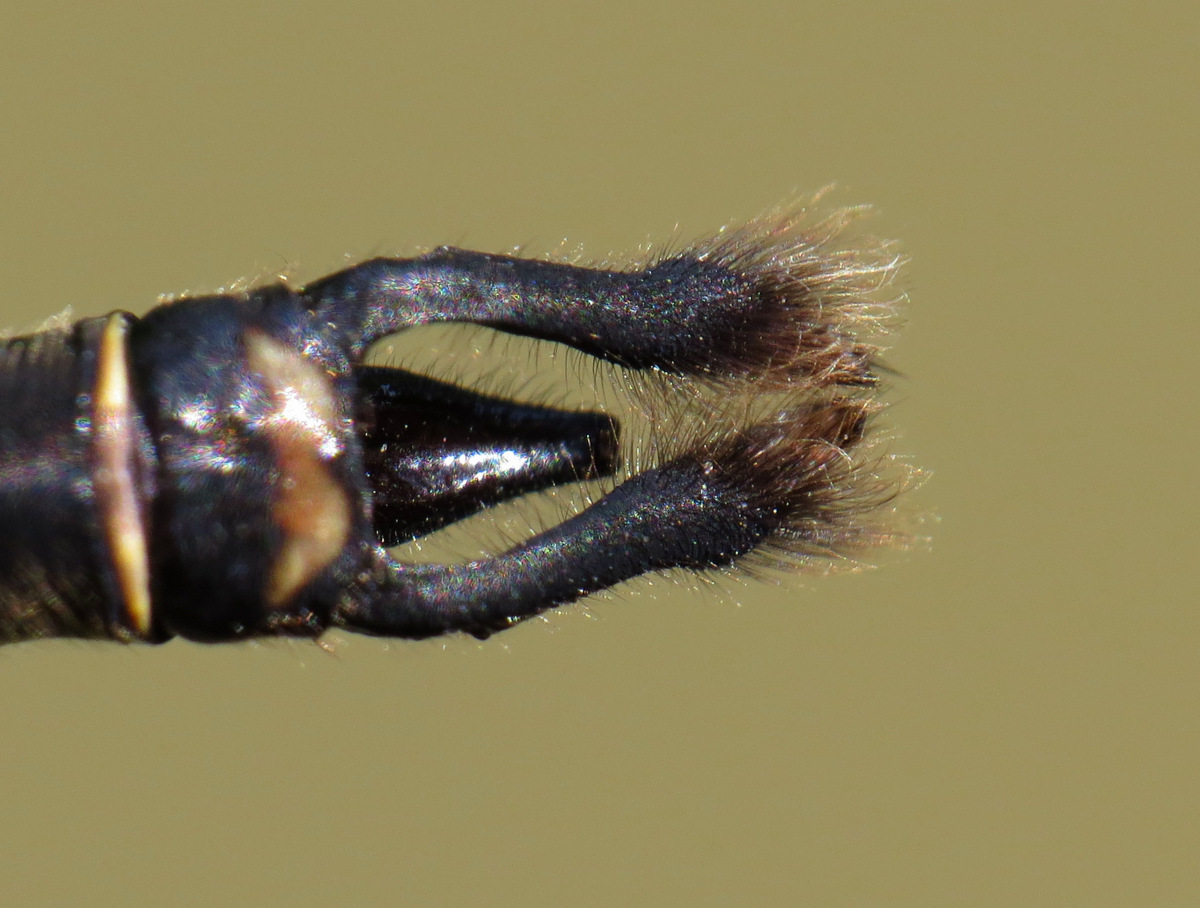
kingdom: Animalia
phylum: Arthropoda
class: Insecta
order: Odonata
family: Corduliidae
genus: Somatochlora
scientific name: Somatochlora walshii
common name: Brush-tipped emerald
